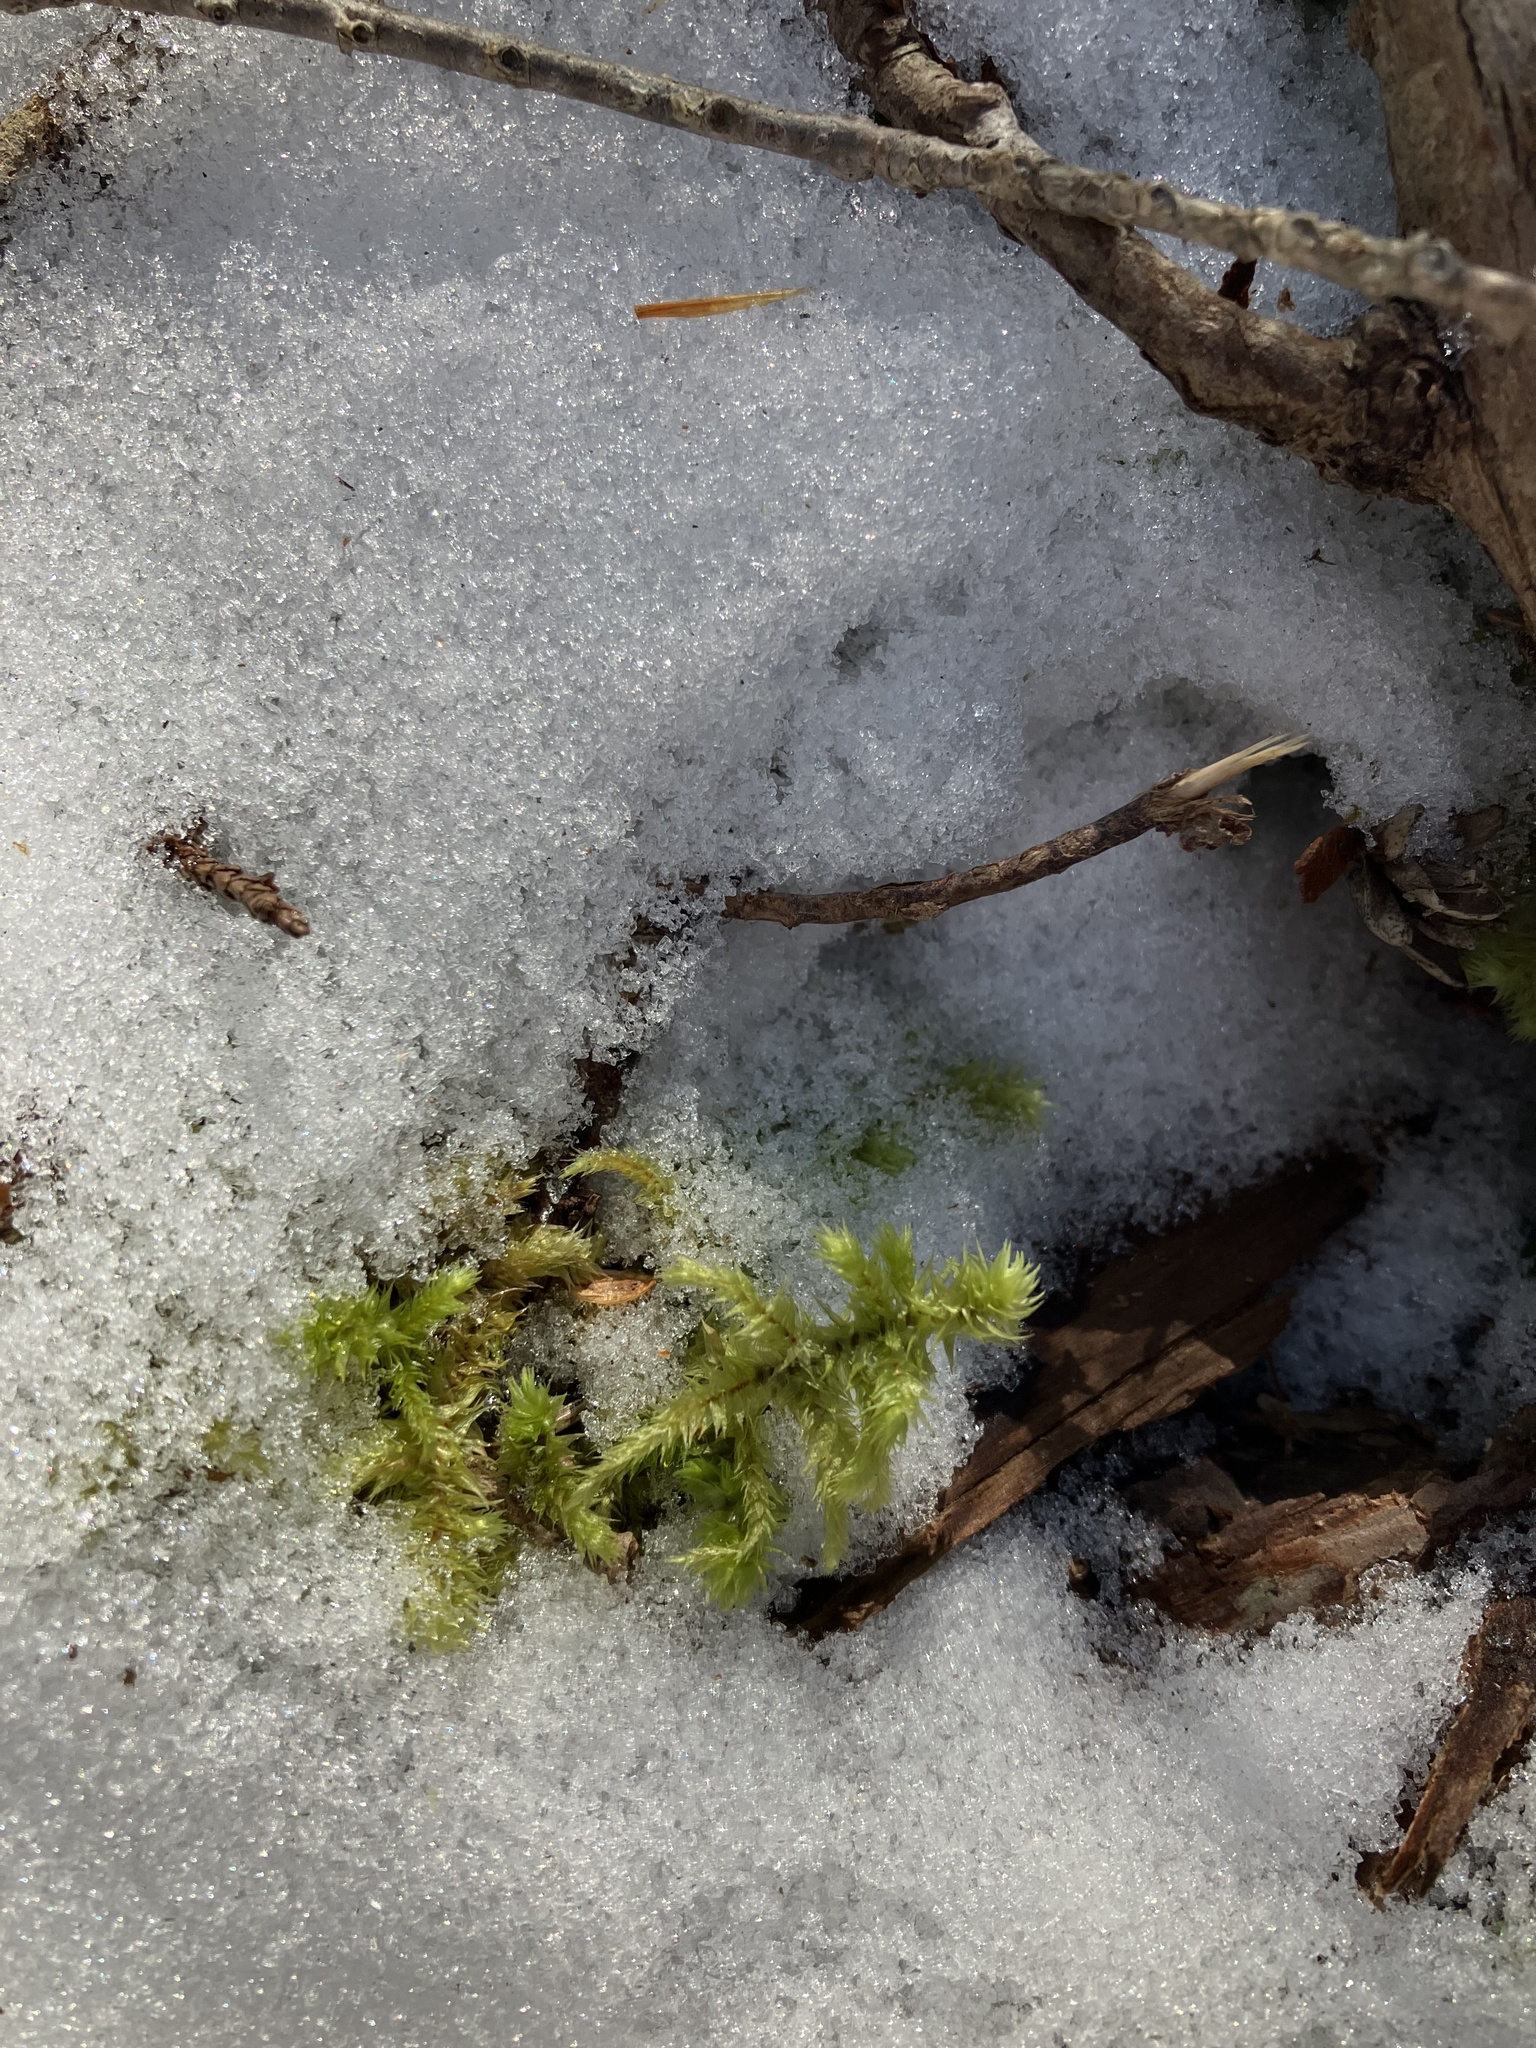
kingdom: Plantae
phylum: Bryophyta
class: Bryopsida
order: Hypnales
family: Hylocomiaceae
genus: Hylocomiadelphus
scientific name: Hylocomiadelphus triquetrus
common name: Rough goose neck moss
